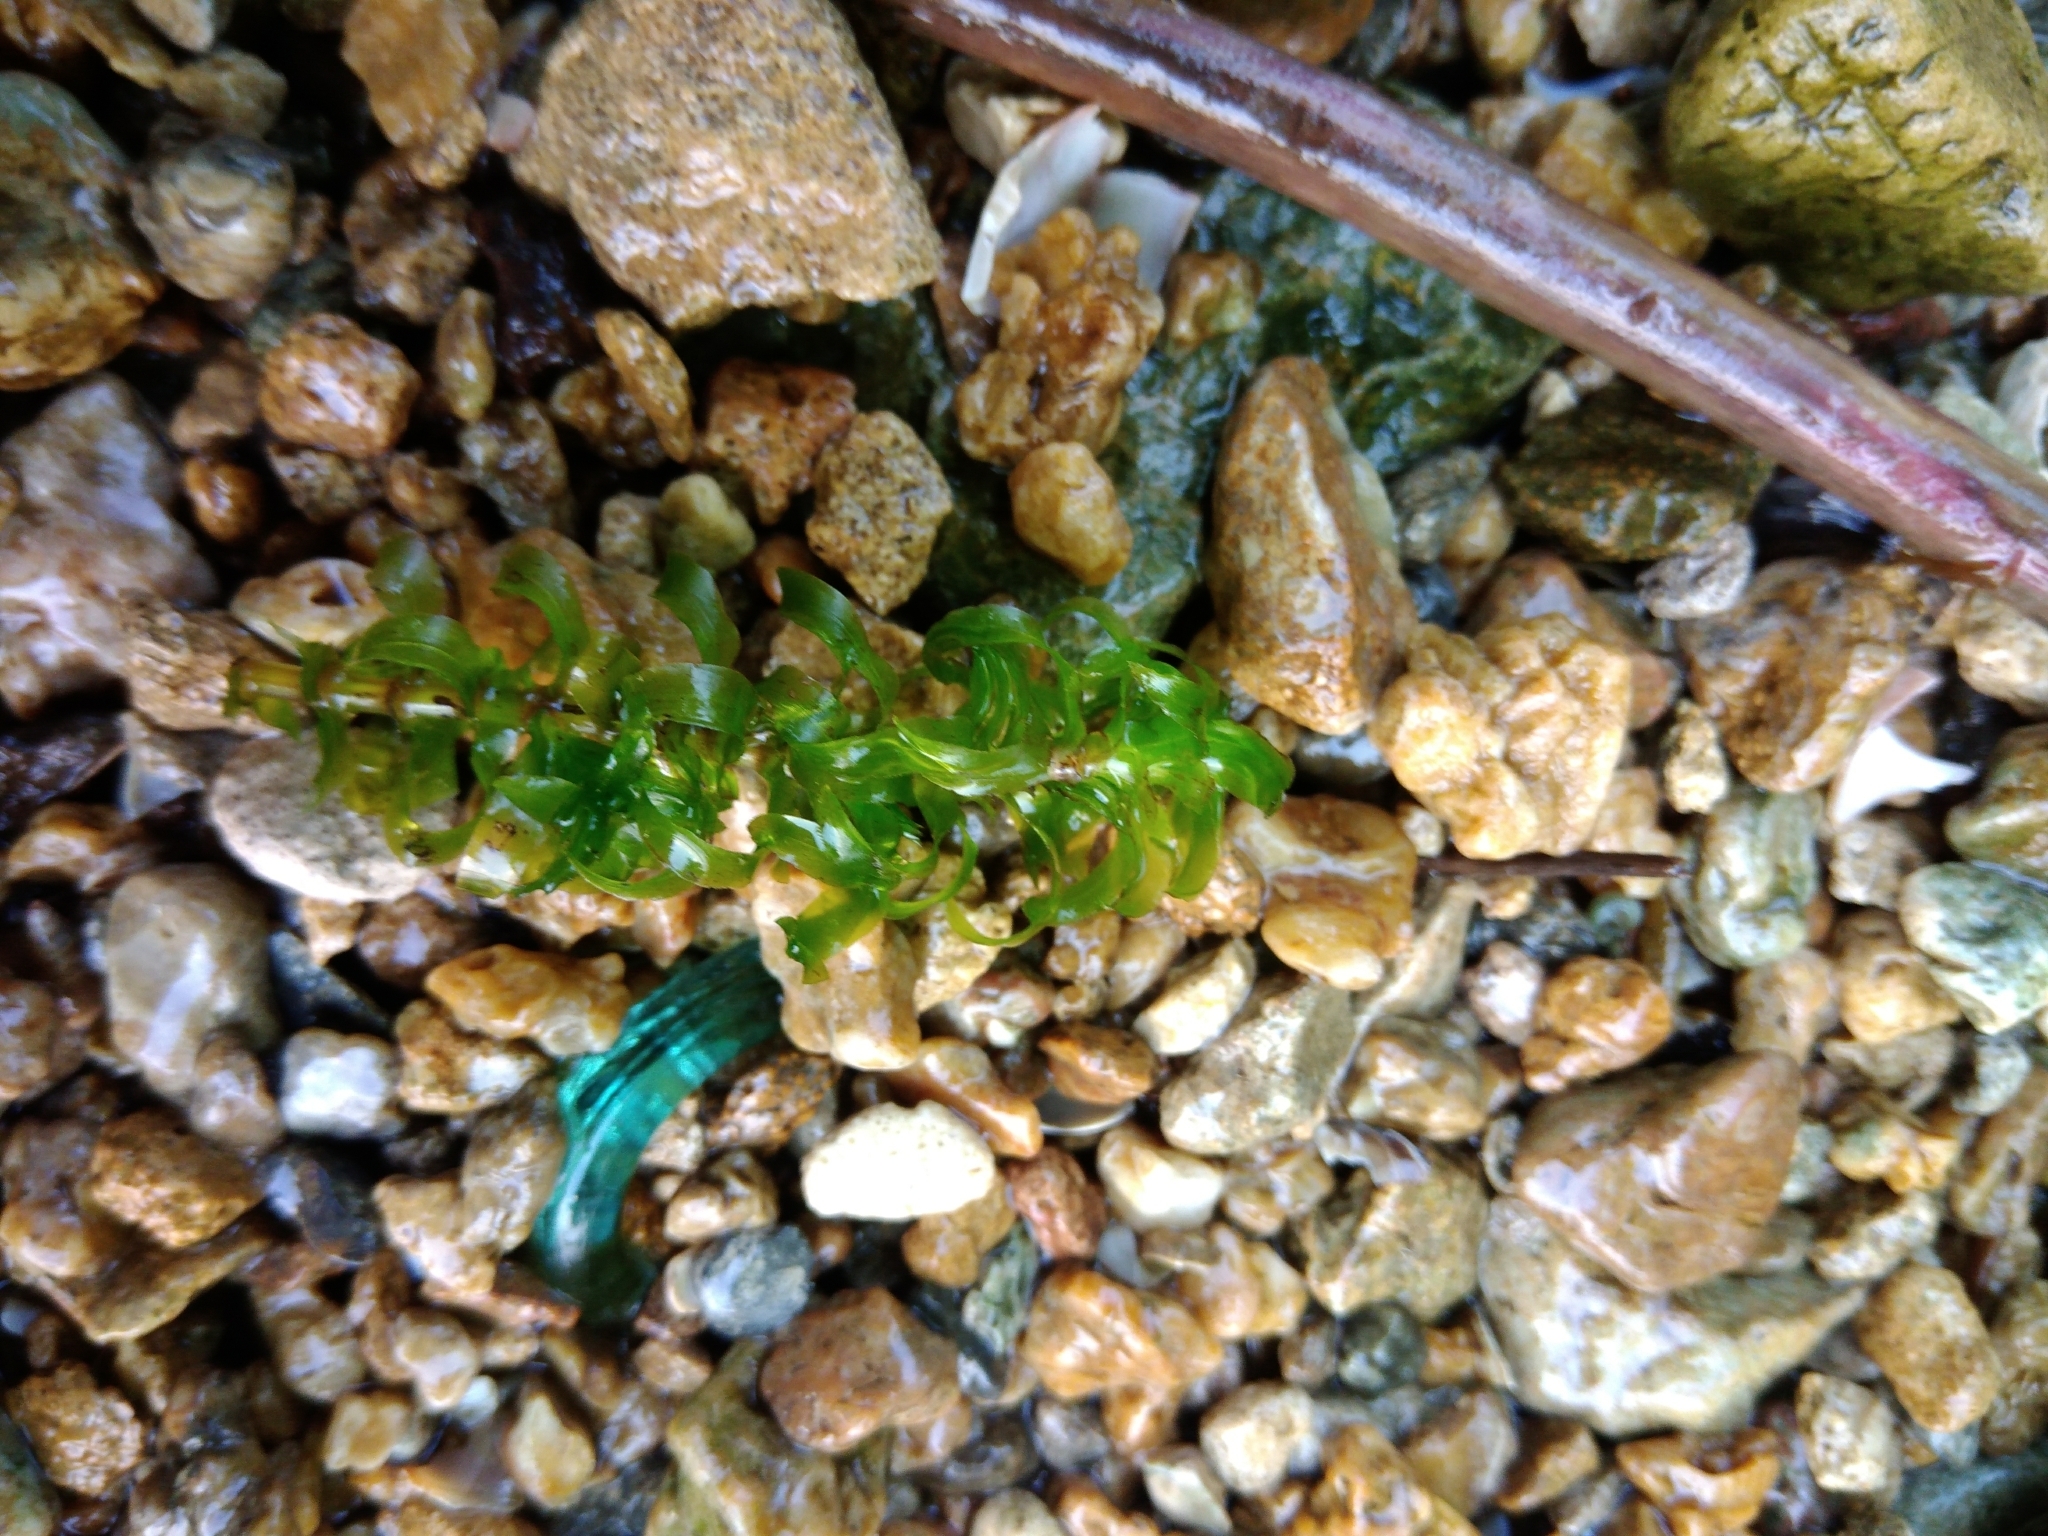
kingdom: Plantae
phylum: Tracheophyta
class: Liliopsida
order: Alismatales
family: Hydrocharitaceae
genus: Elodea
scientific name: Elodea canadensis
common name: Canadian waterweed
